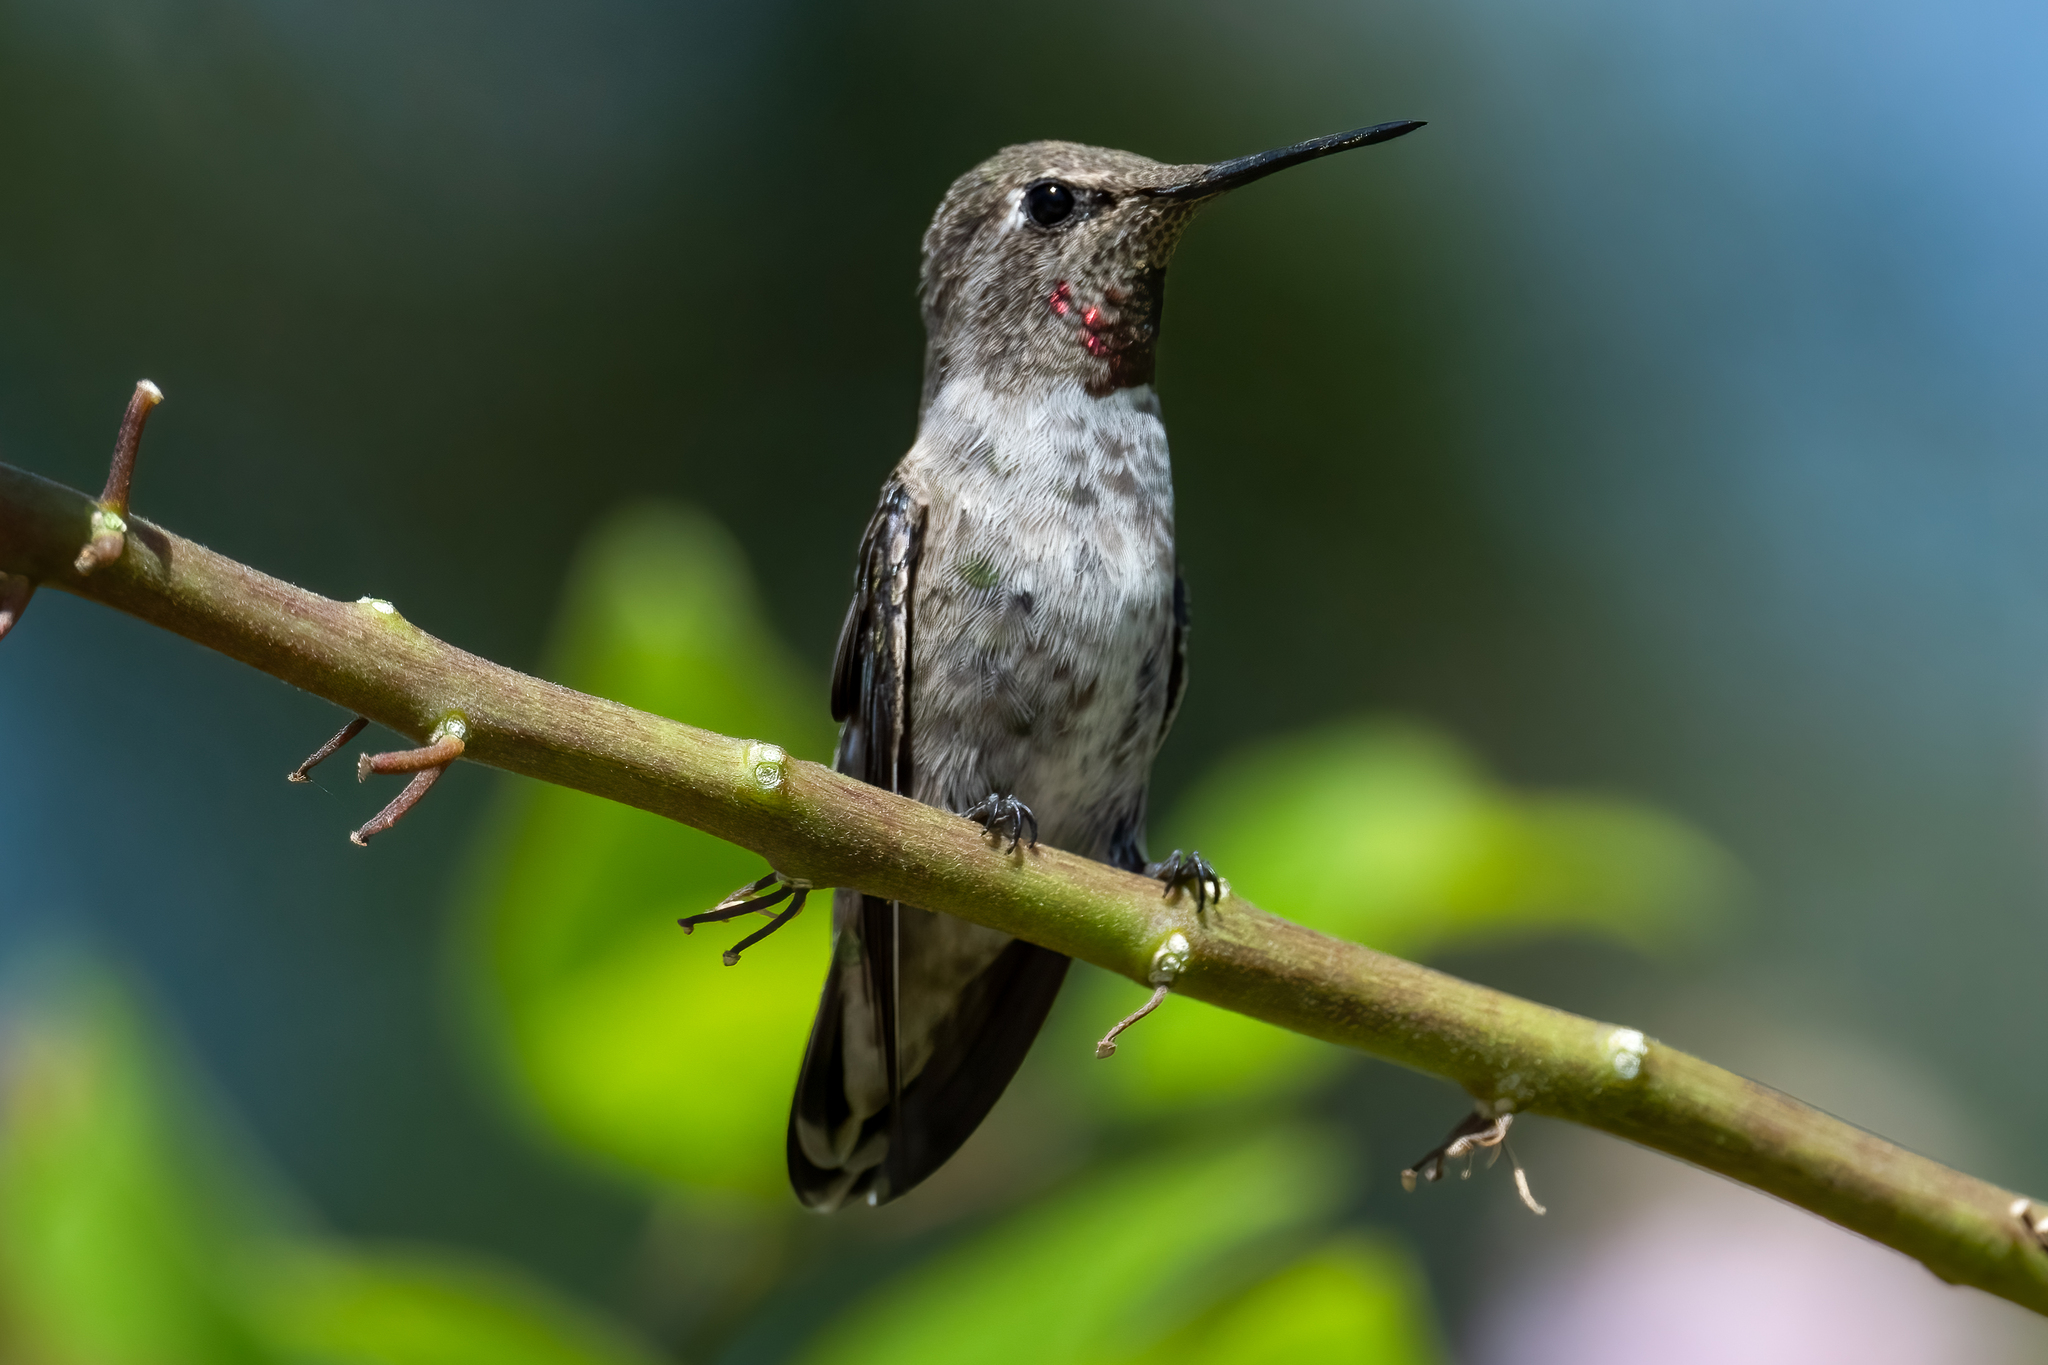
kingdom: Animalia
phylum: Chordata
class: Aves
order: Apodiformes
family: Trochilidae
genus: Calypte
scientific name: Calypte anna
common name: Anna's hummingbird
